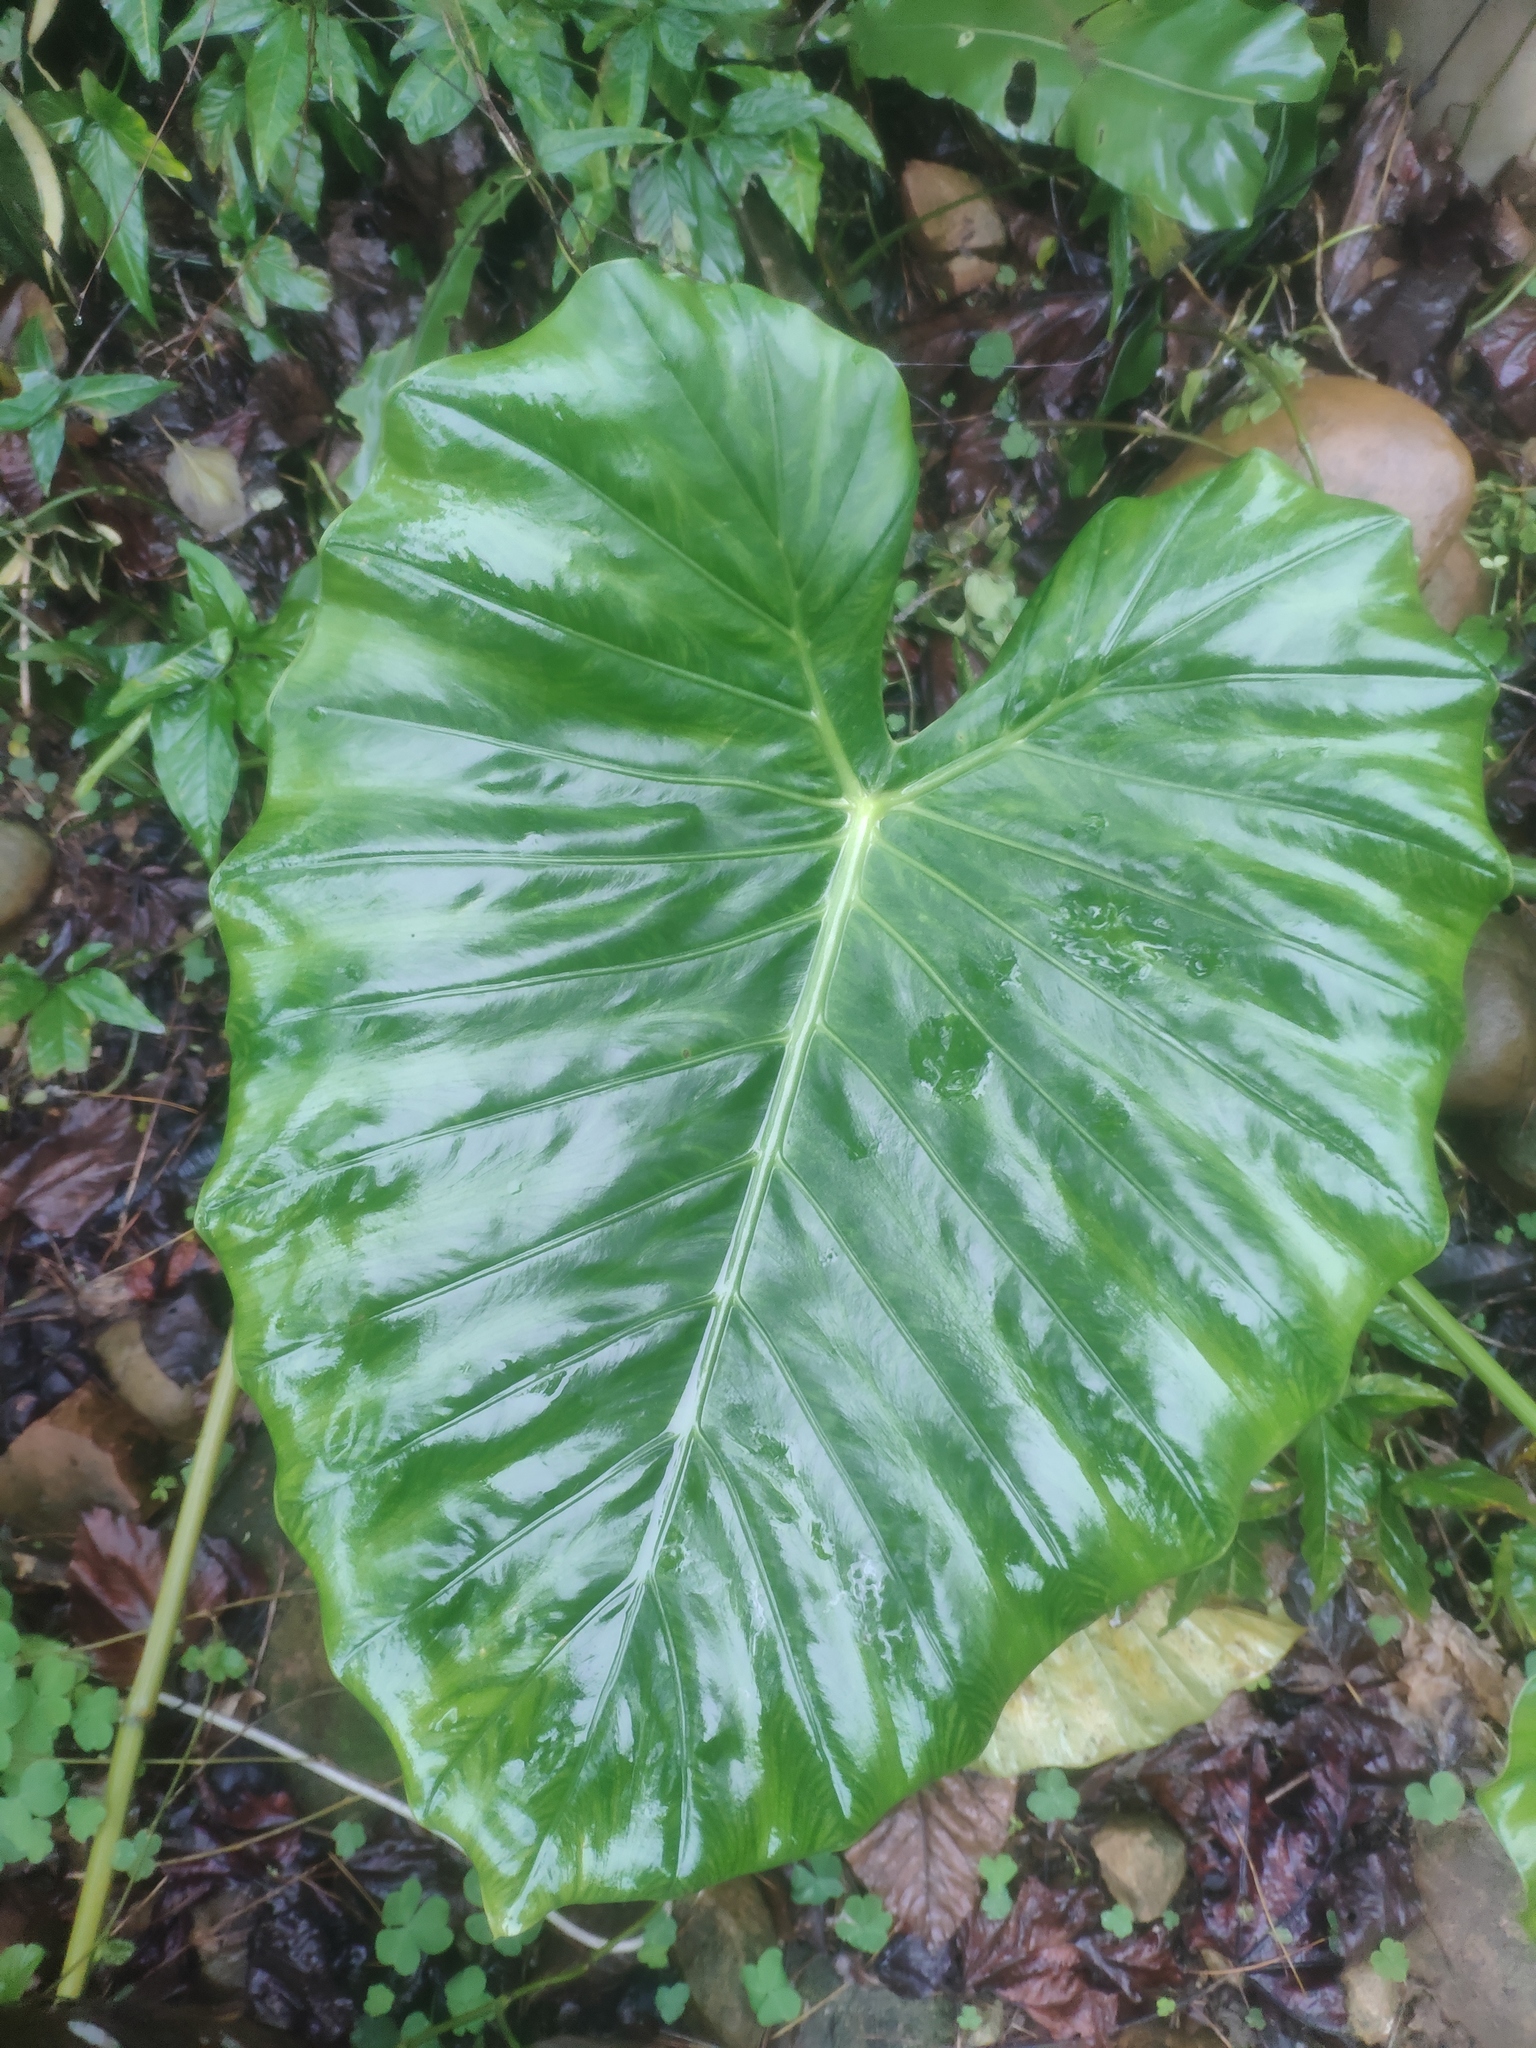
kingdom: Plantae
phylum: Tracheophyta
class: Liliopsida
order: Alismatales
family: Araceae
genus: Alocasia
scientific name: Alocasia odora
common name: Asian taro
